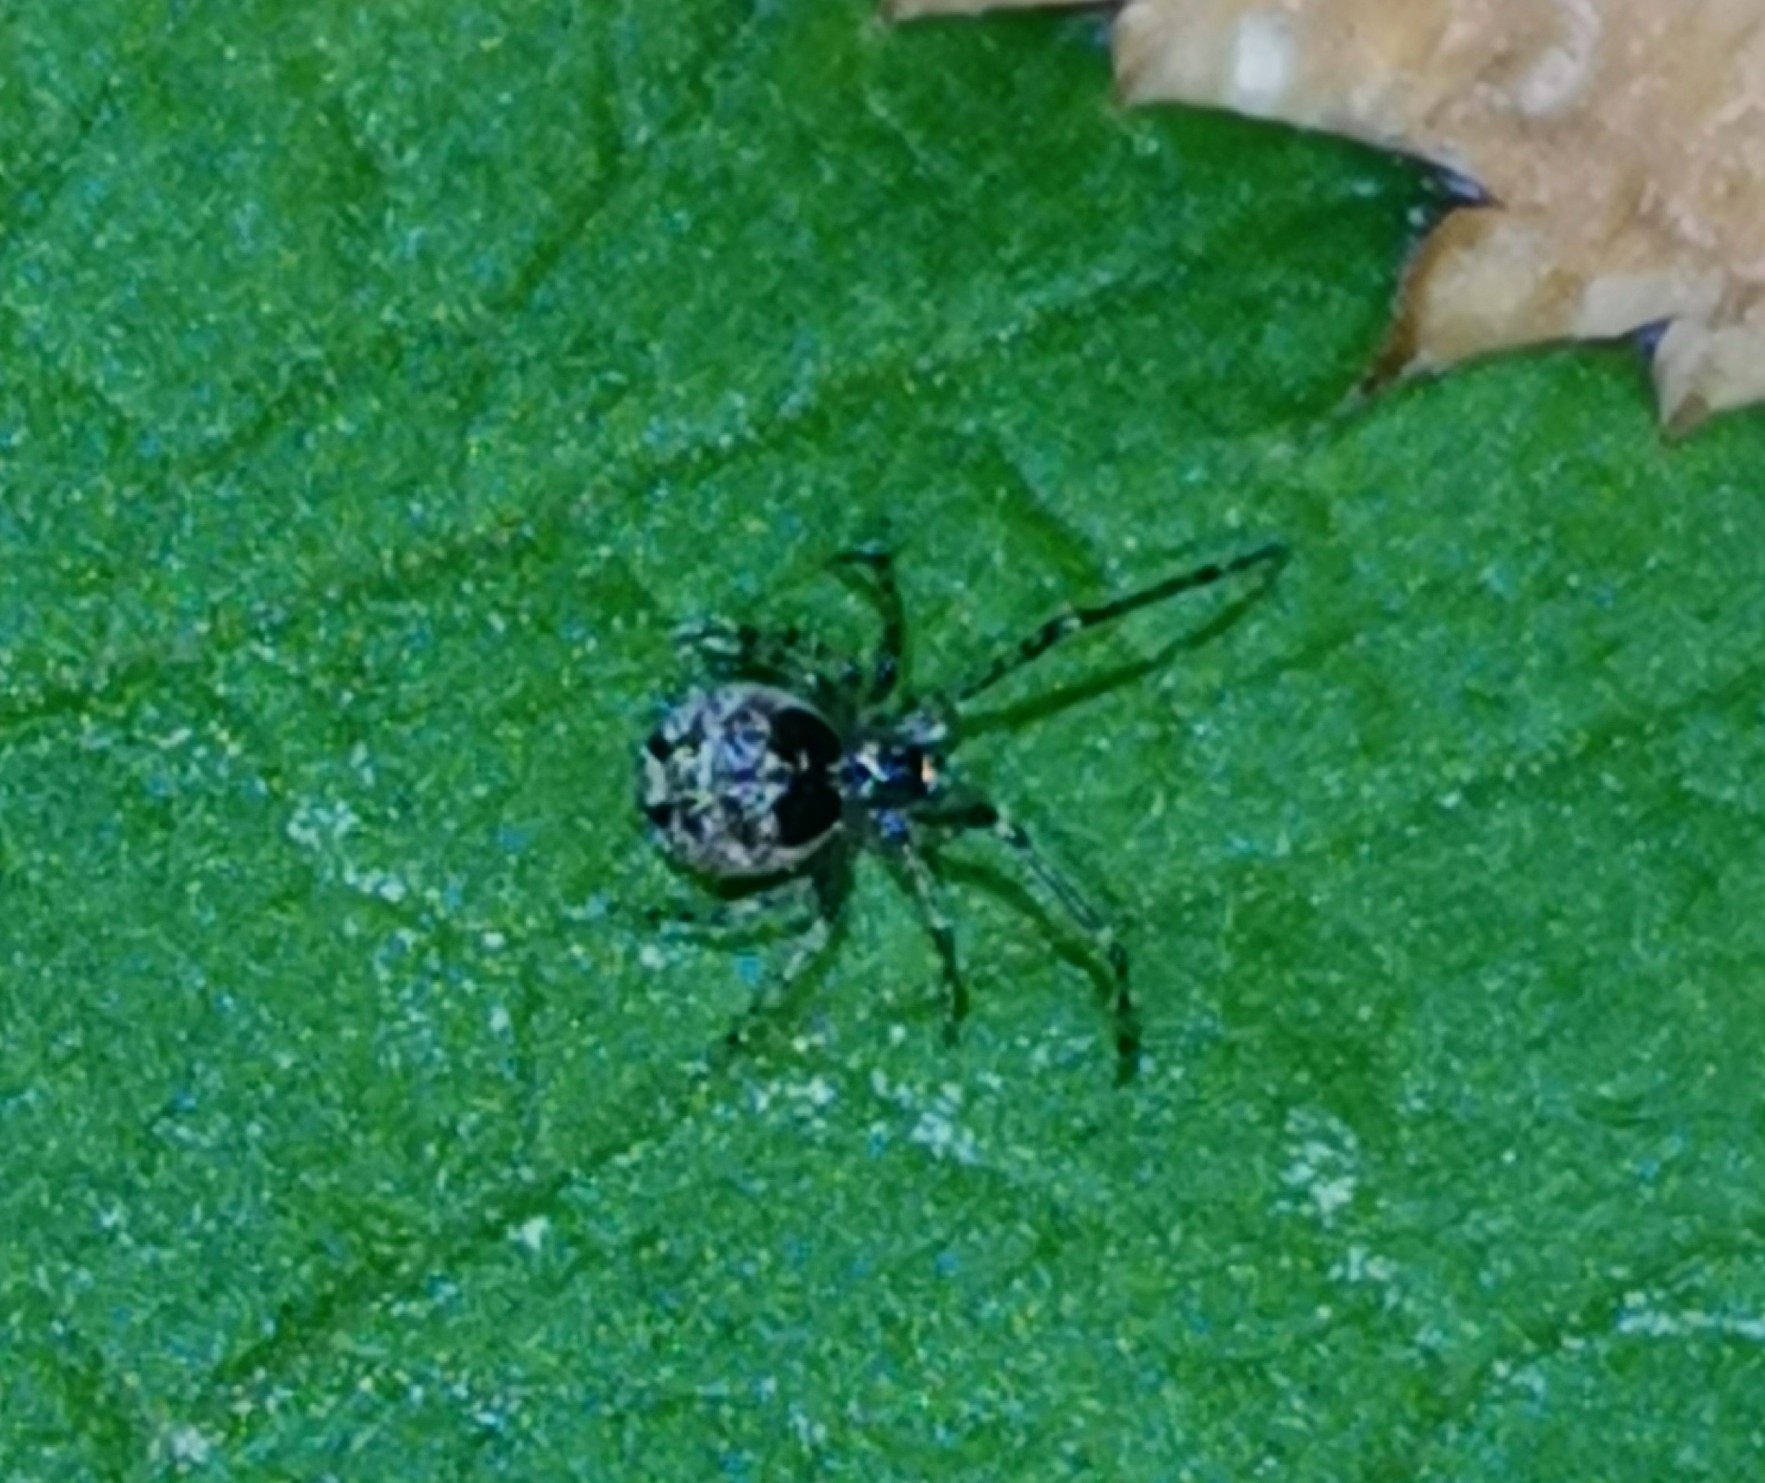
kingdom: Animalia
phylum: Arthropoda
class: Arachnida
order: Araneae
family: Theridiidae
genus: Platnickina
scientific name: Platnickina tincta
